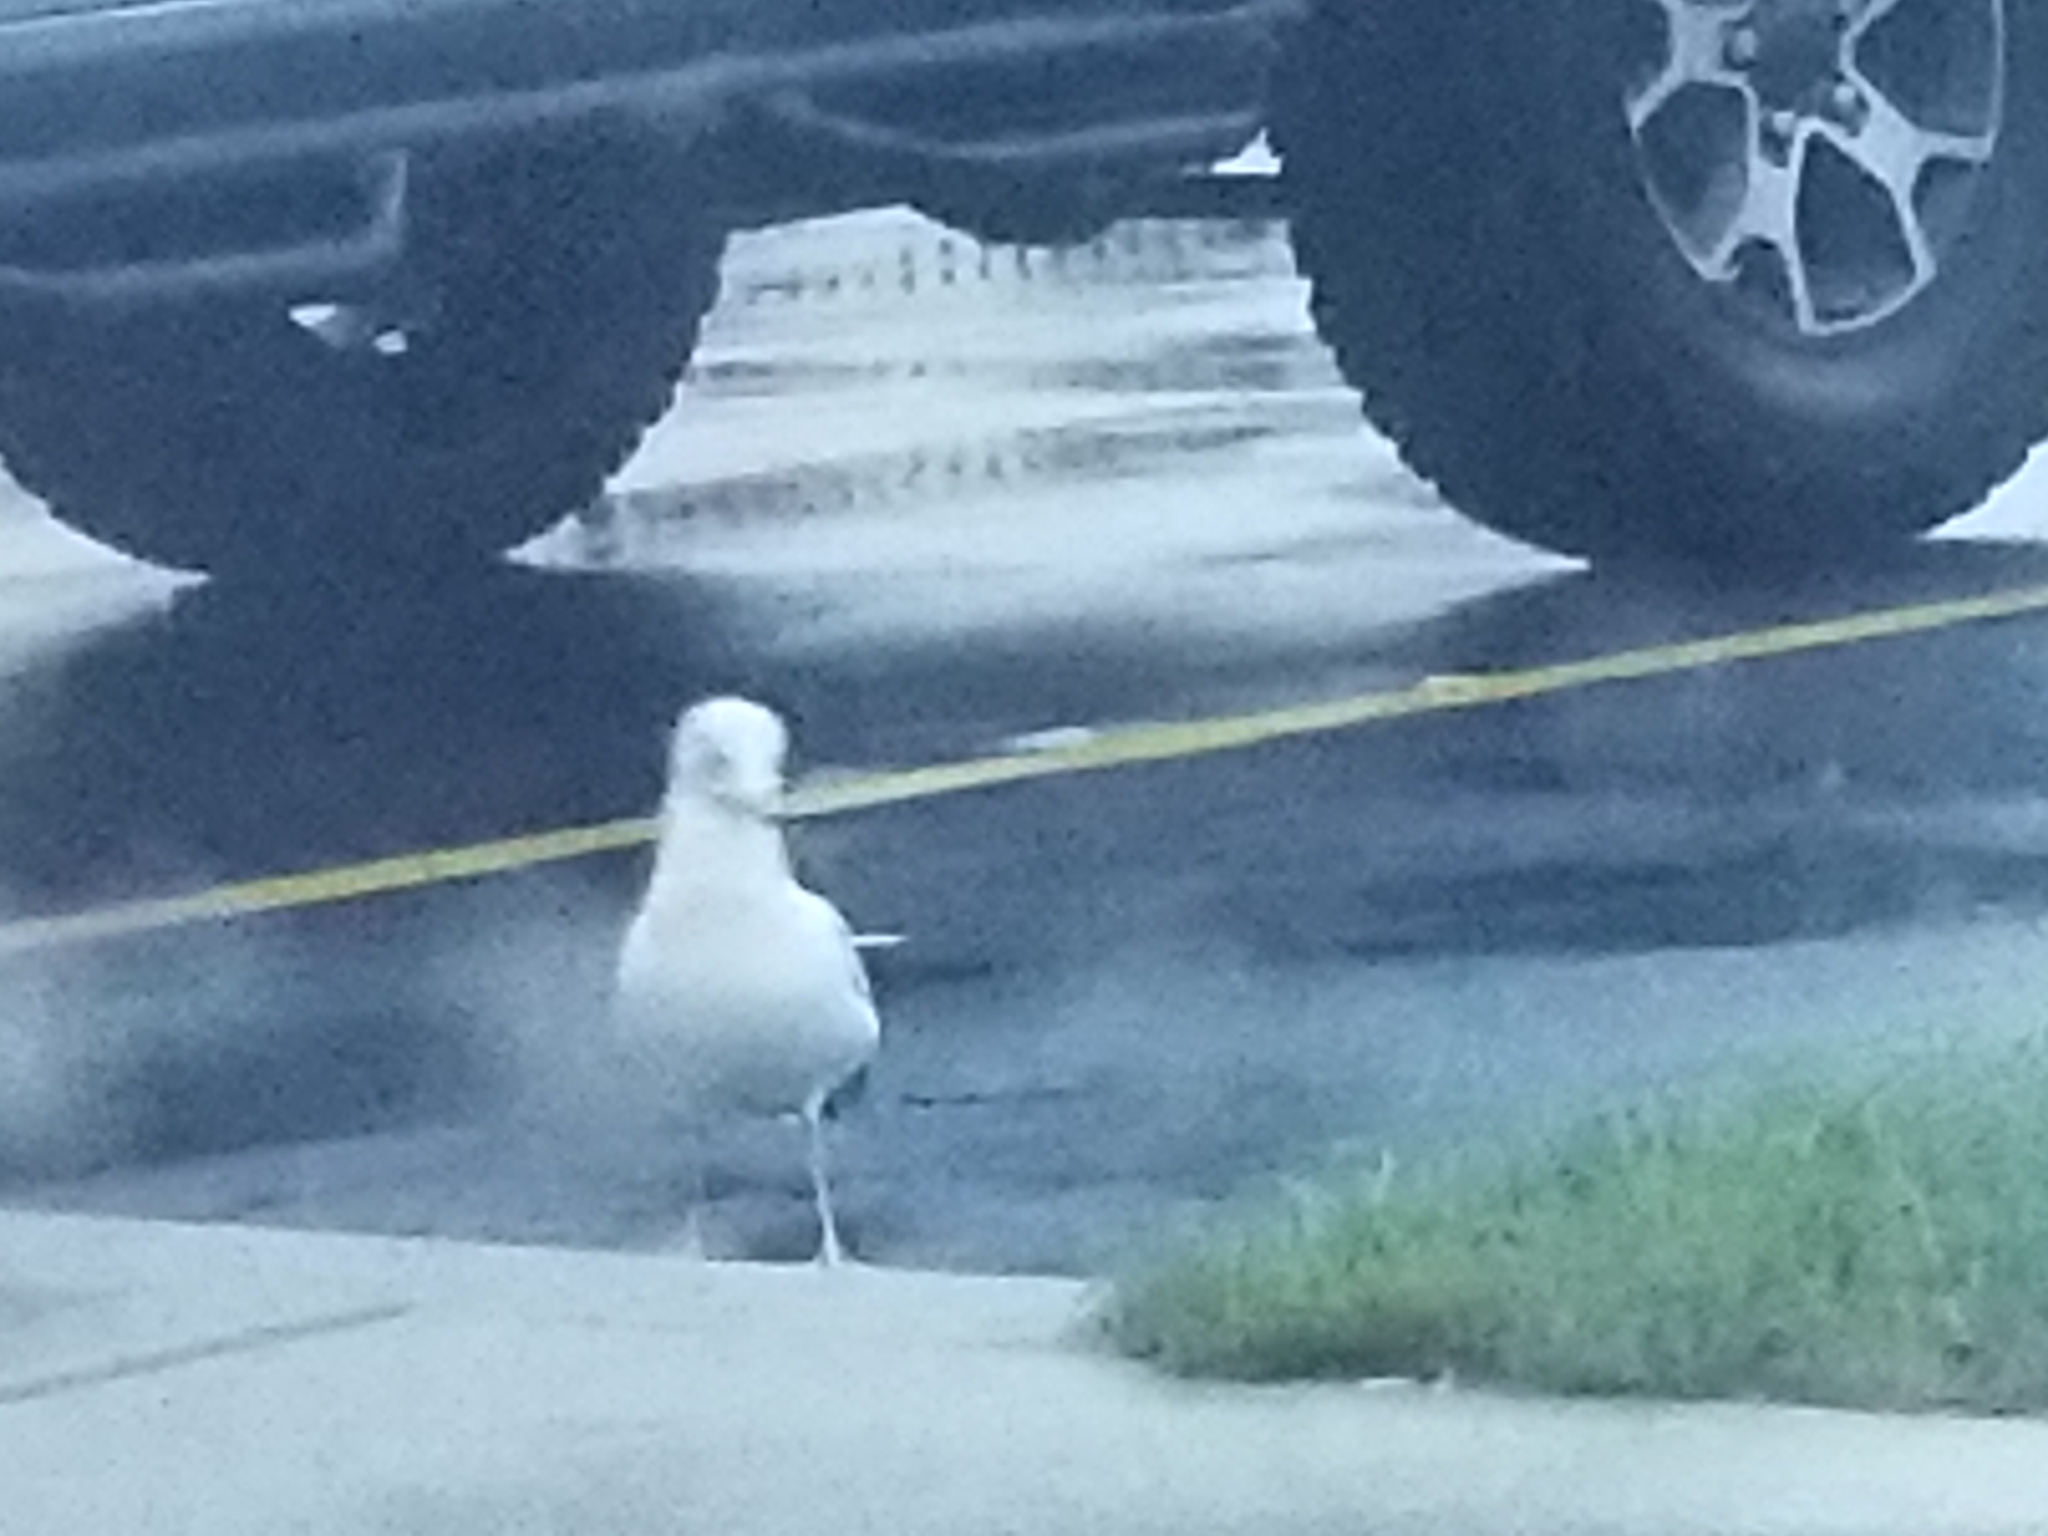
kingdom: Animalia
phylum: Chordata
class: Aves
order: Charadriiformes
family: Laridae
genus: Larus
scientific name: Larus delawarensis
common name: Ring-billed gull
